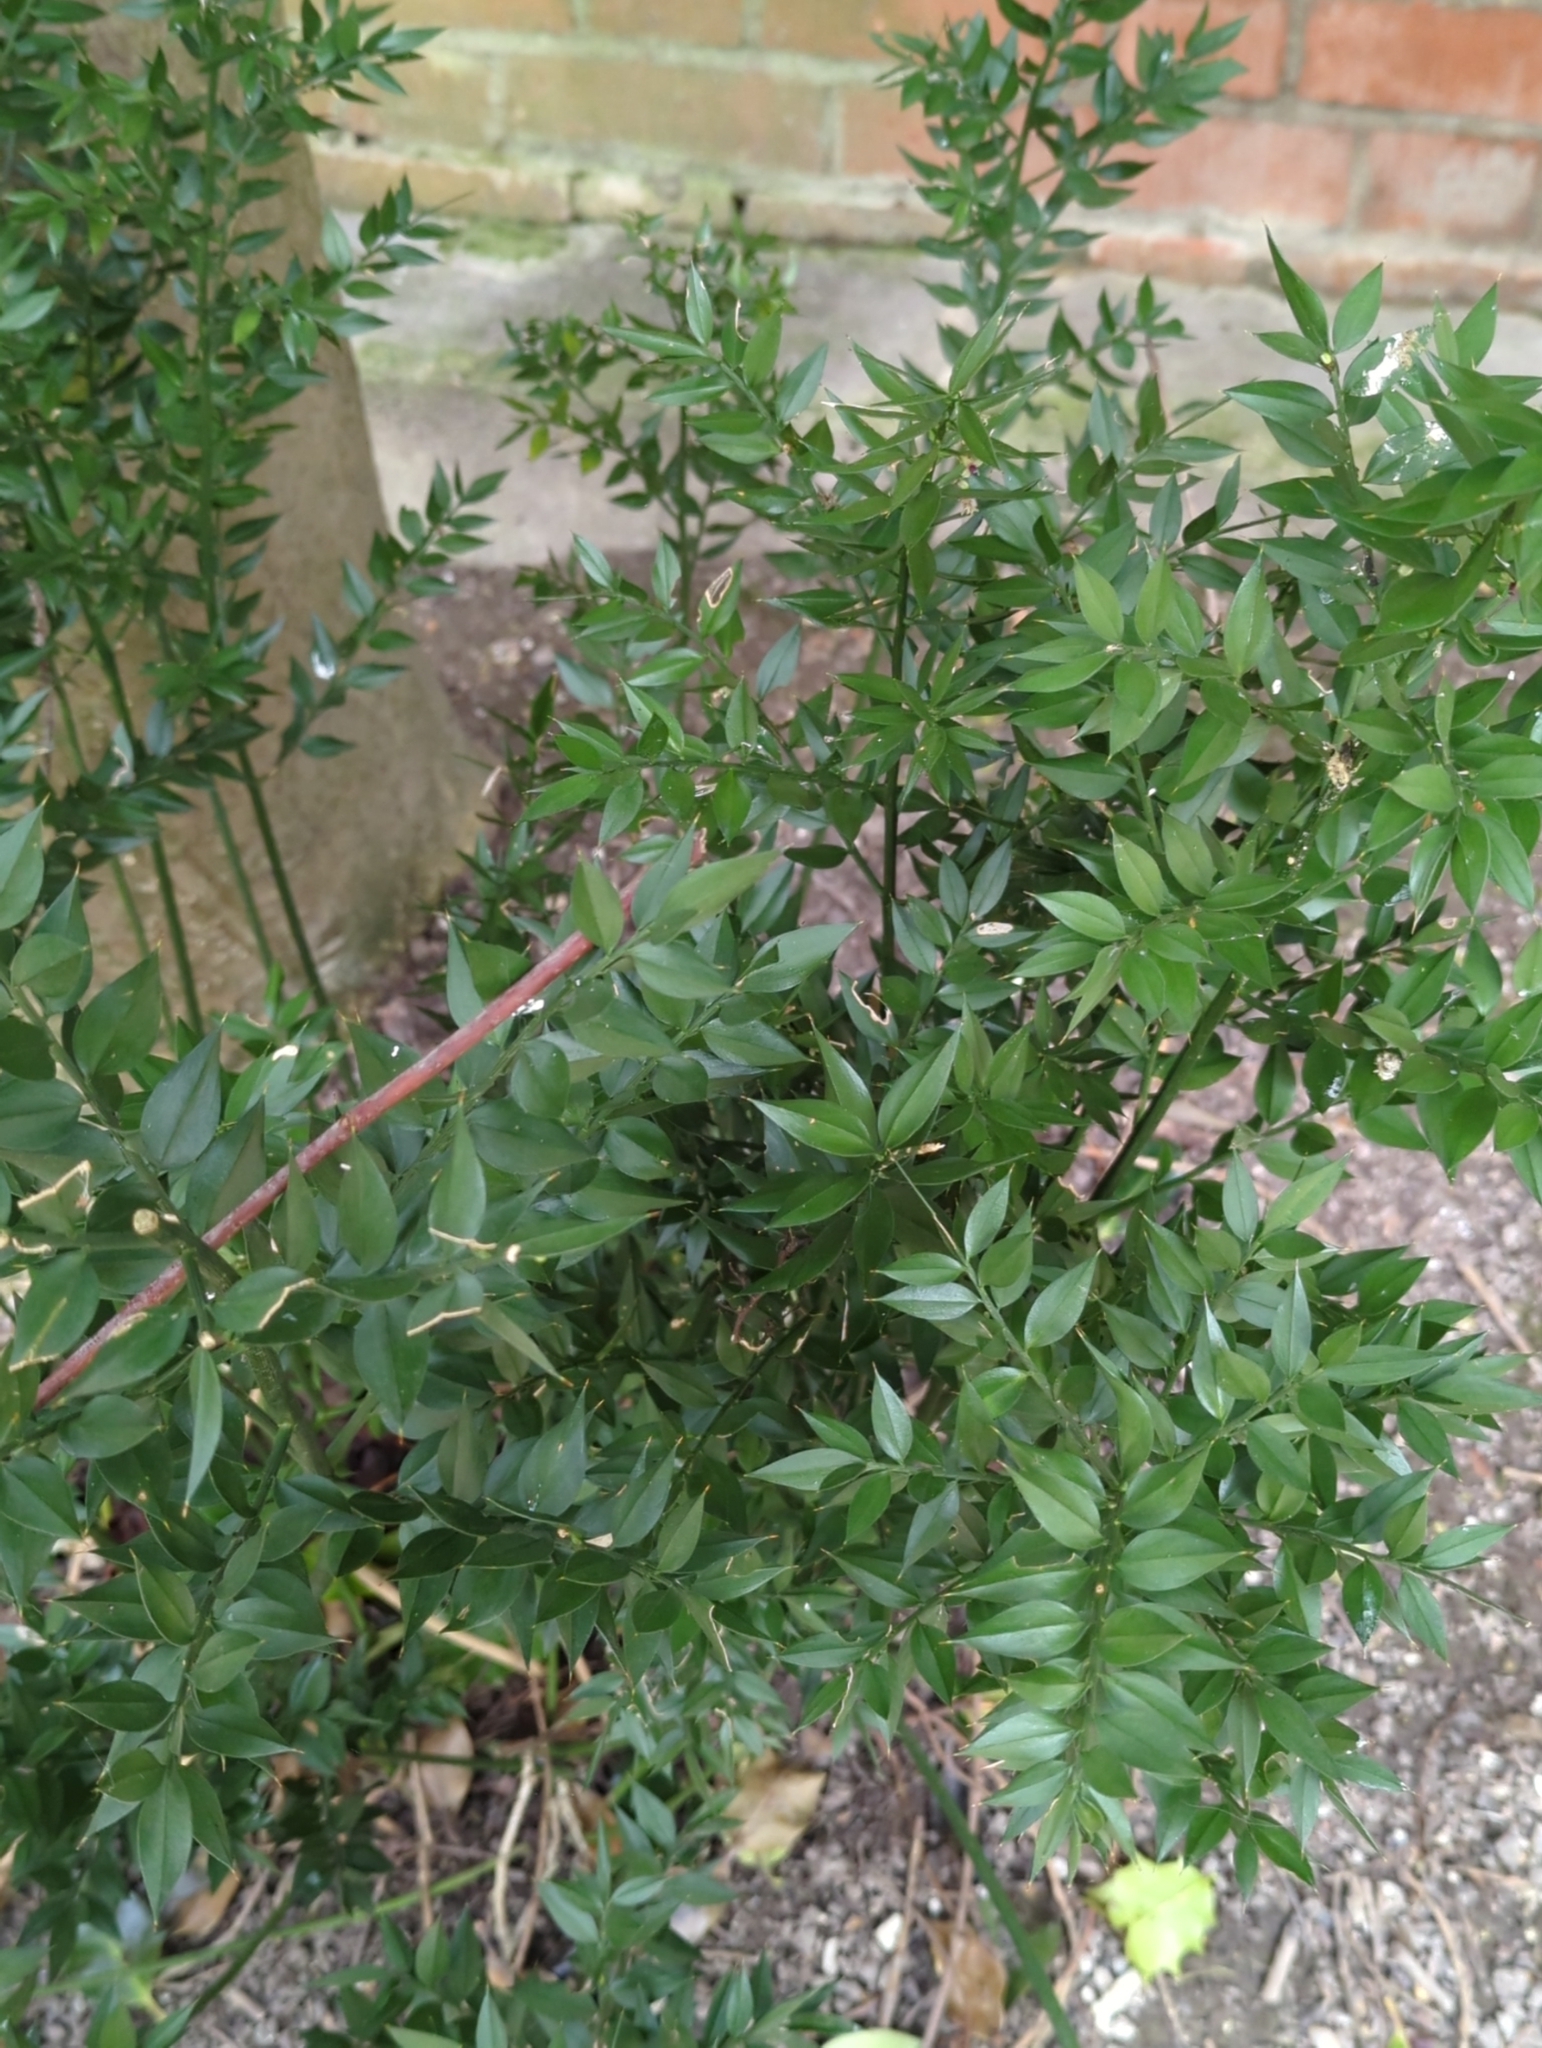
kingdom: Plantae
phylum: Tracheophyta
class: Liliopsida
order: Asparagales
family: Asparagaceae
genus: Ruscus
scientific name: Ruscus aculeatus
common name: Butcher's-broom
